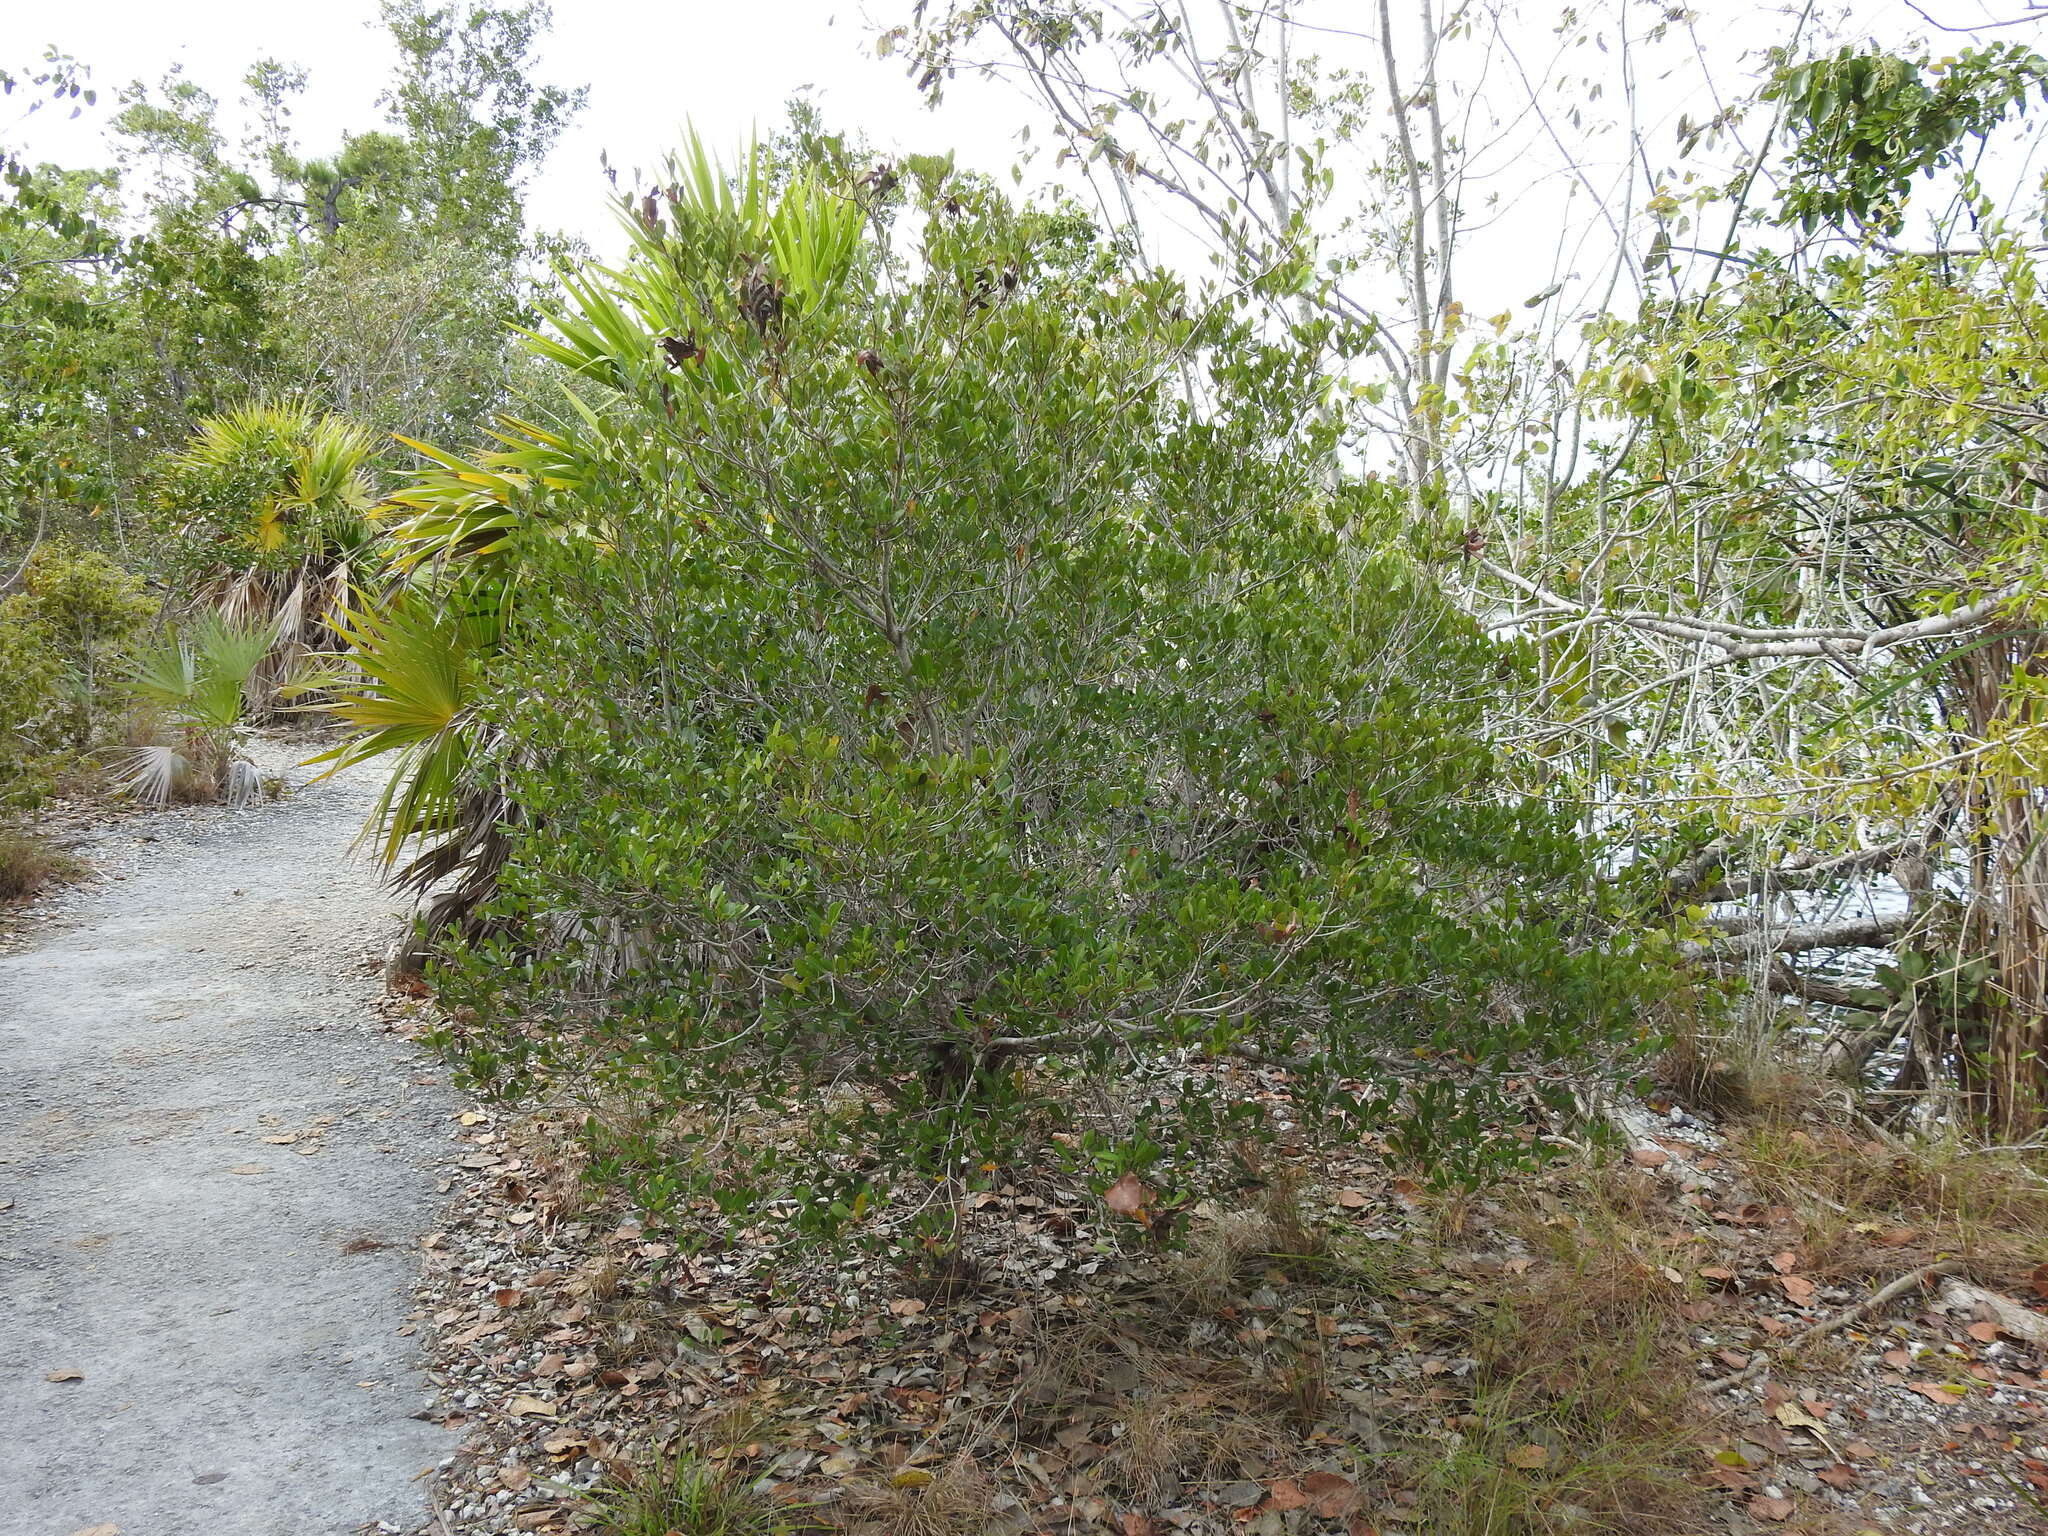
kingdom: Plantae
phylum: Tracheophyta
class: Magnoliopsida
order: Malpighiales
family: Malpighiaceae
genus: Byrsonima
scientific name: Byrsonima lucida
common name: Clam-cherry
